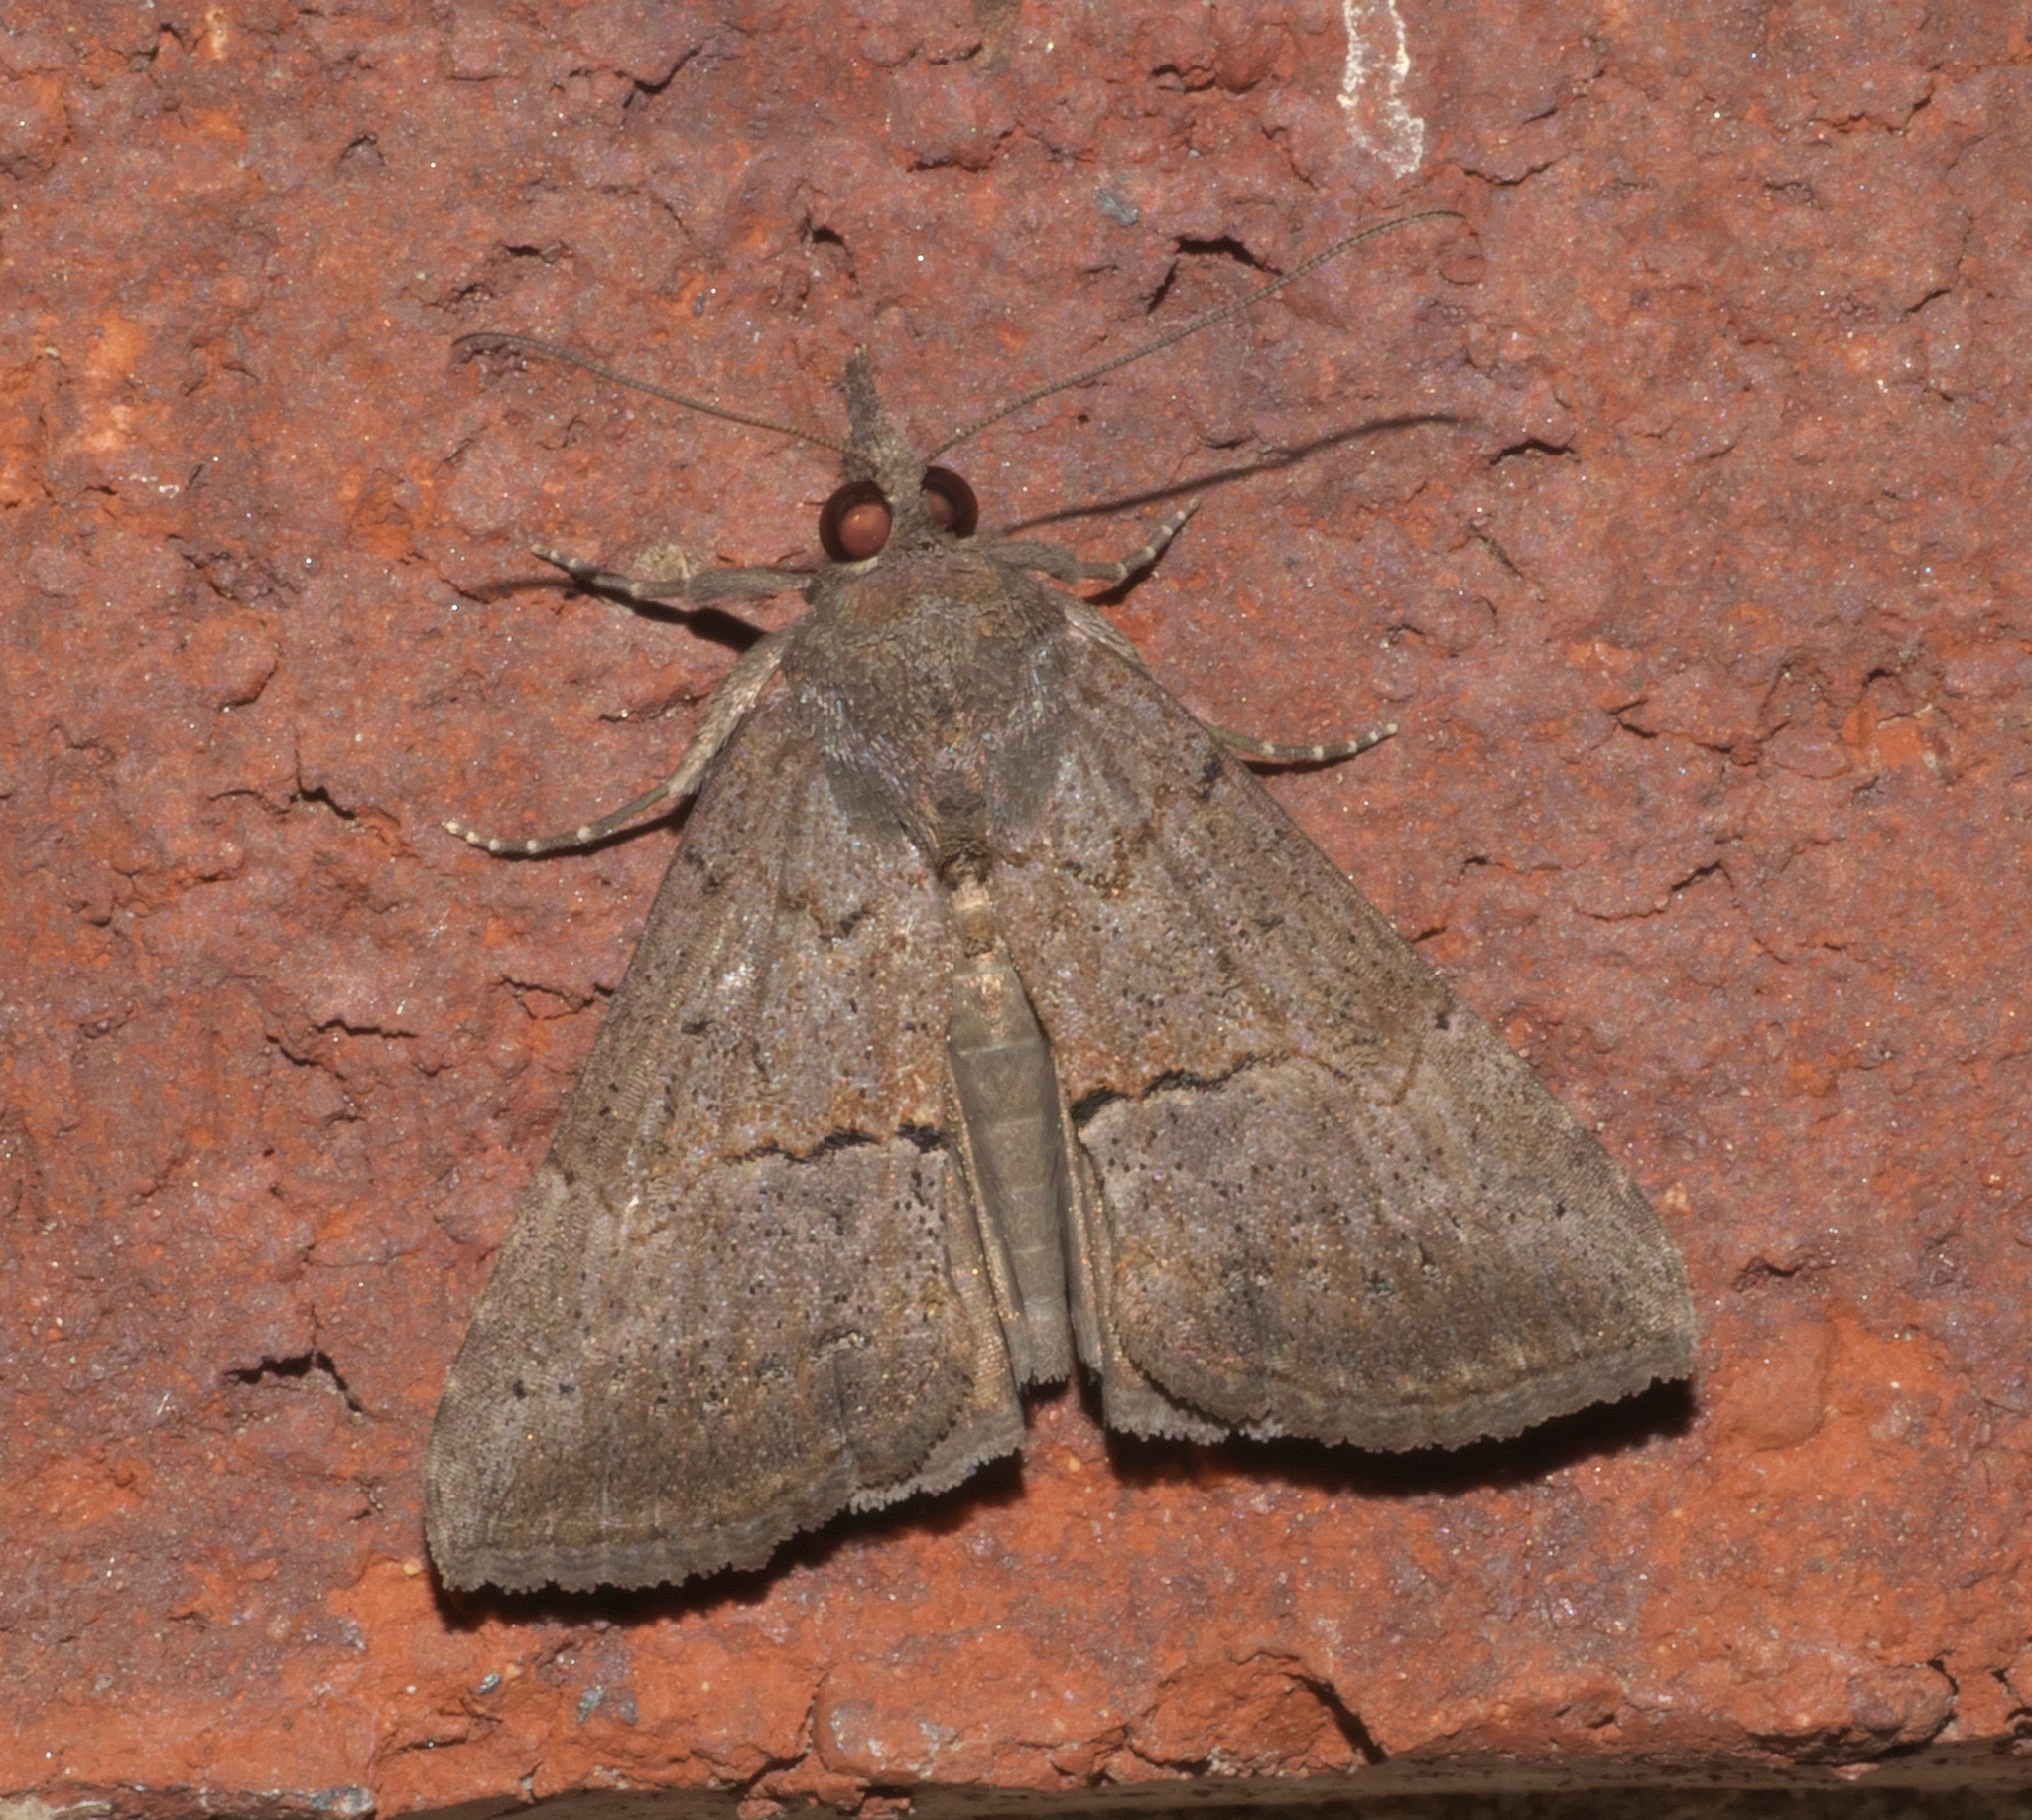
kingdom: Animalia
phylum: Arthropoda
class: Insecta
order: Lepidoptera
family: Erebidae
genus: Hypena
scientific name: Hypena scabra
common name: Green cloverworm
